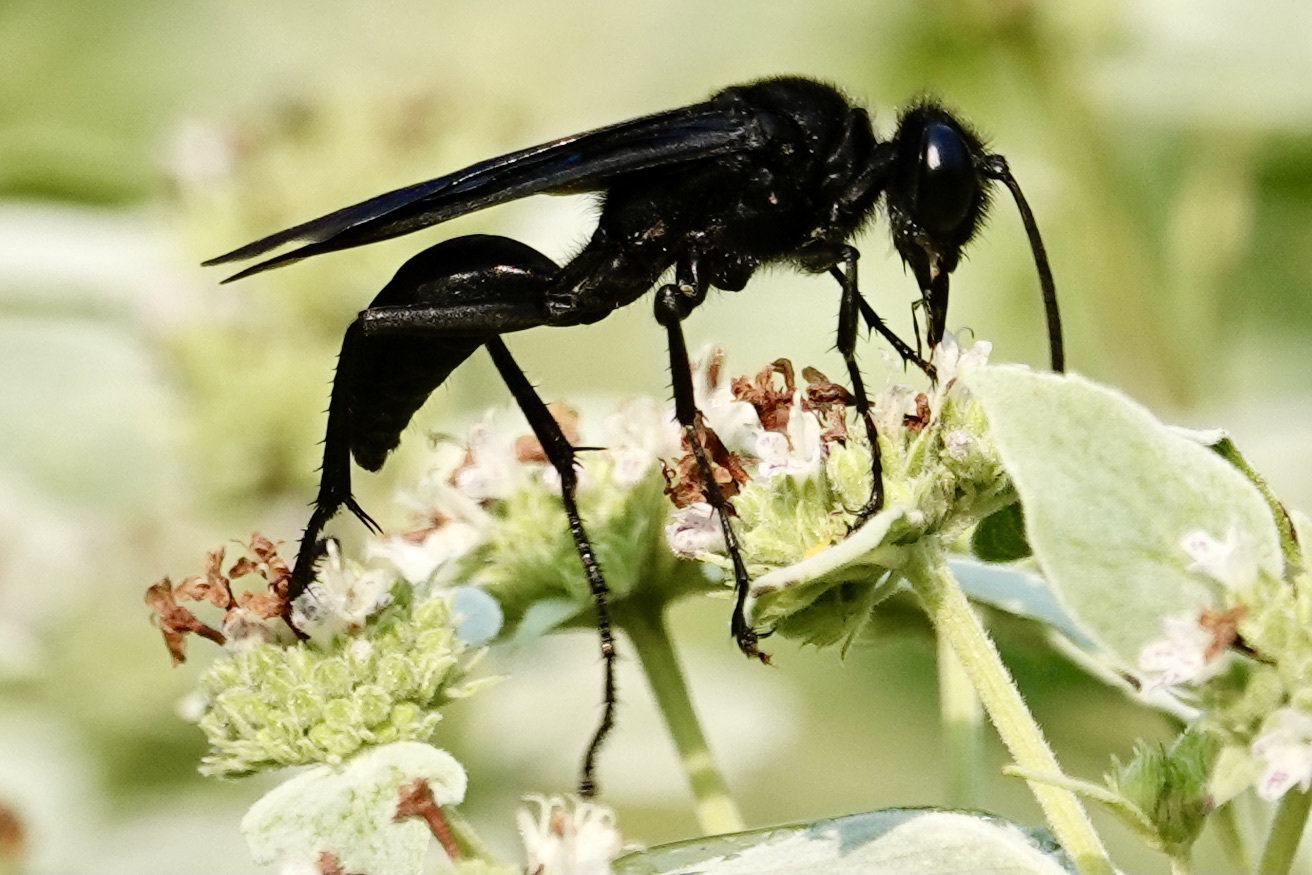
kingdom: Animalia
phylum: Arthropoda
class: Insecta
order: Hymenoptera
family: Sphecidae
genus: Sphex
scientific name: Sphex pensylvanicus
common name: Great black digger wasp
